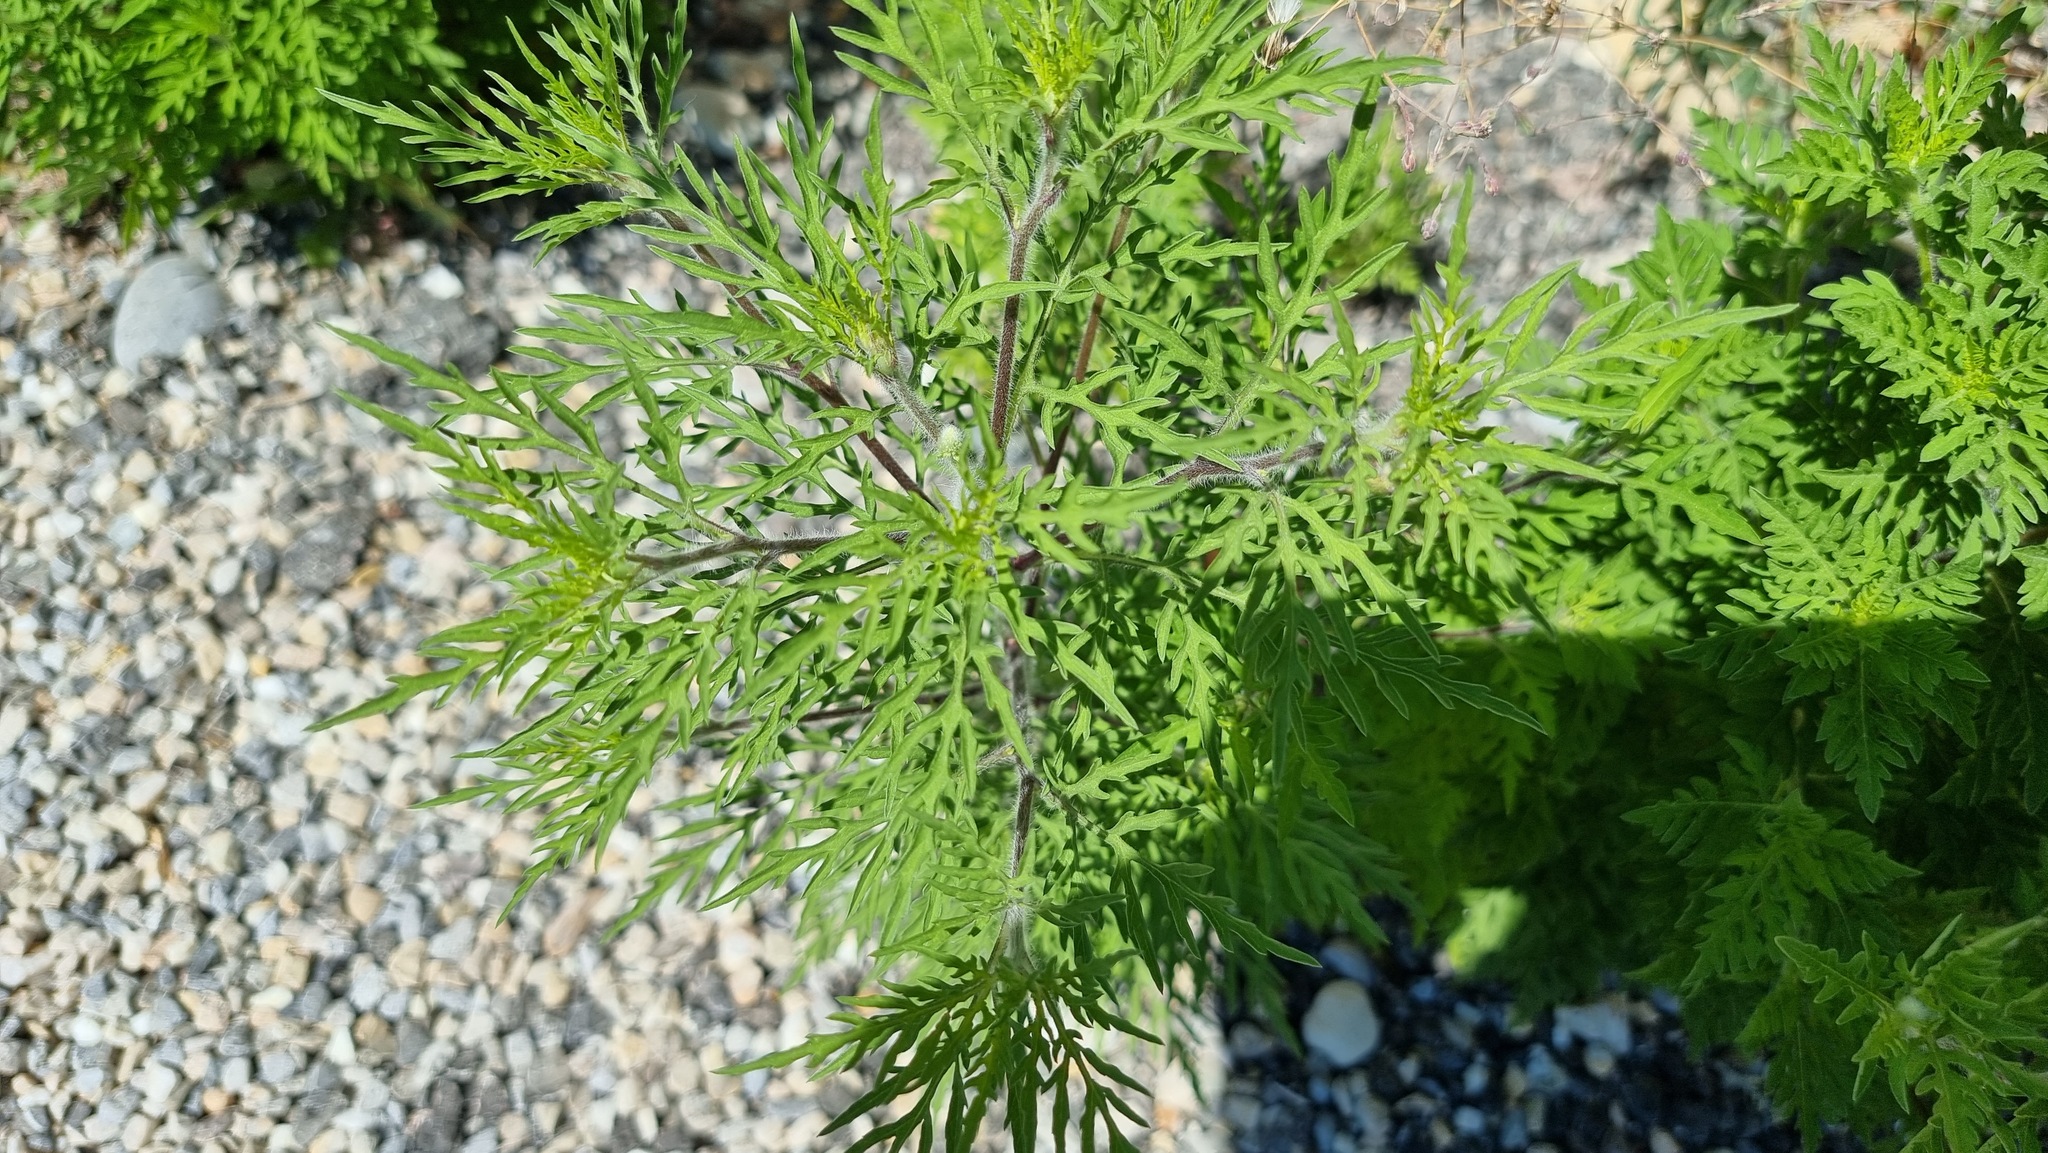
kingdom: Plantae
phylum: Tracheophyta
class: Magnoliopsida
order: Asterales
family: Asteraceae
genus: Ambrosia
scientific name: Ambrosia artemisiifolia
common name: Annual ragweed
